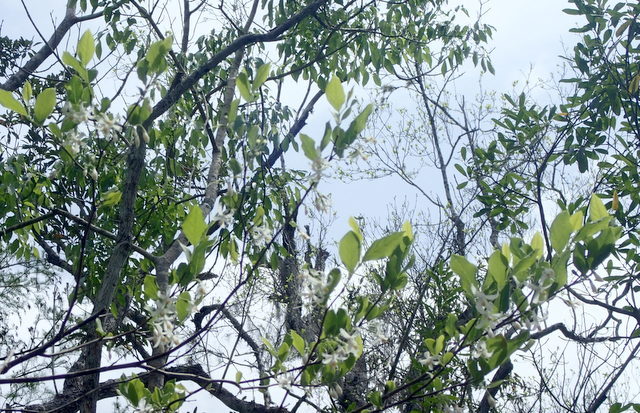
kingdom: Plantae
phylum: Tracheophyta
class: Magnoliopsida
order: Ericales
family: Styracaceae
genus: Styrax
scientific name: Styrax americanus
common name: American snowbell
